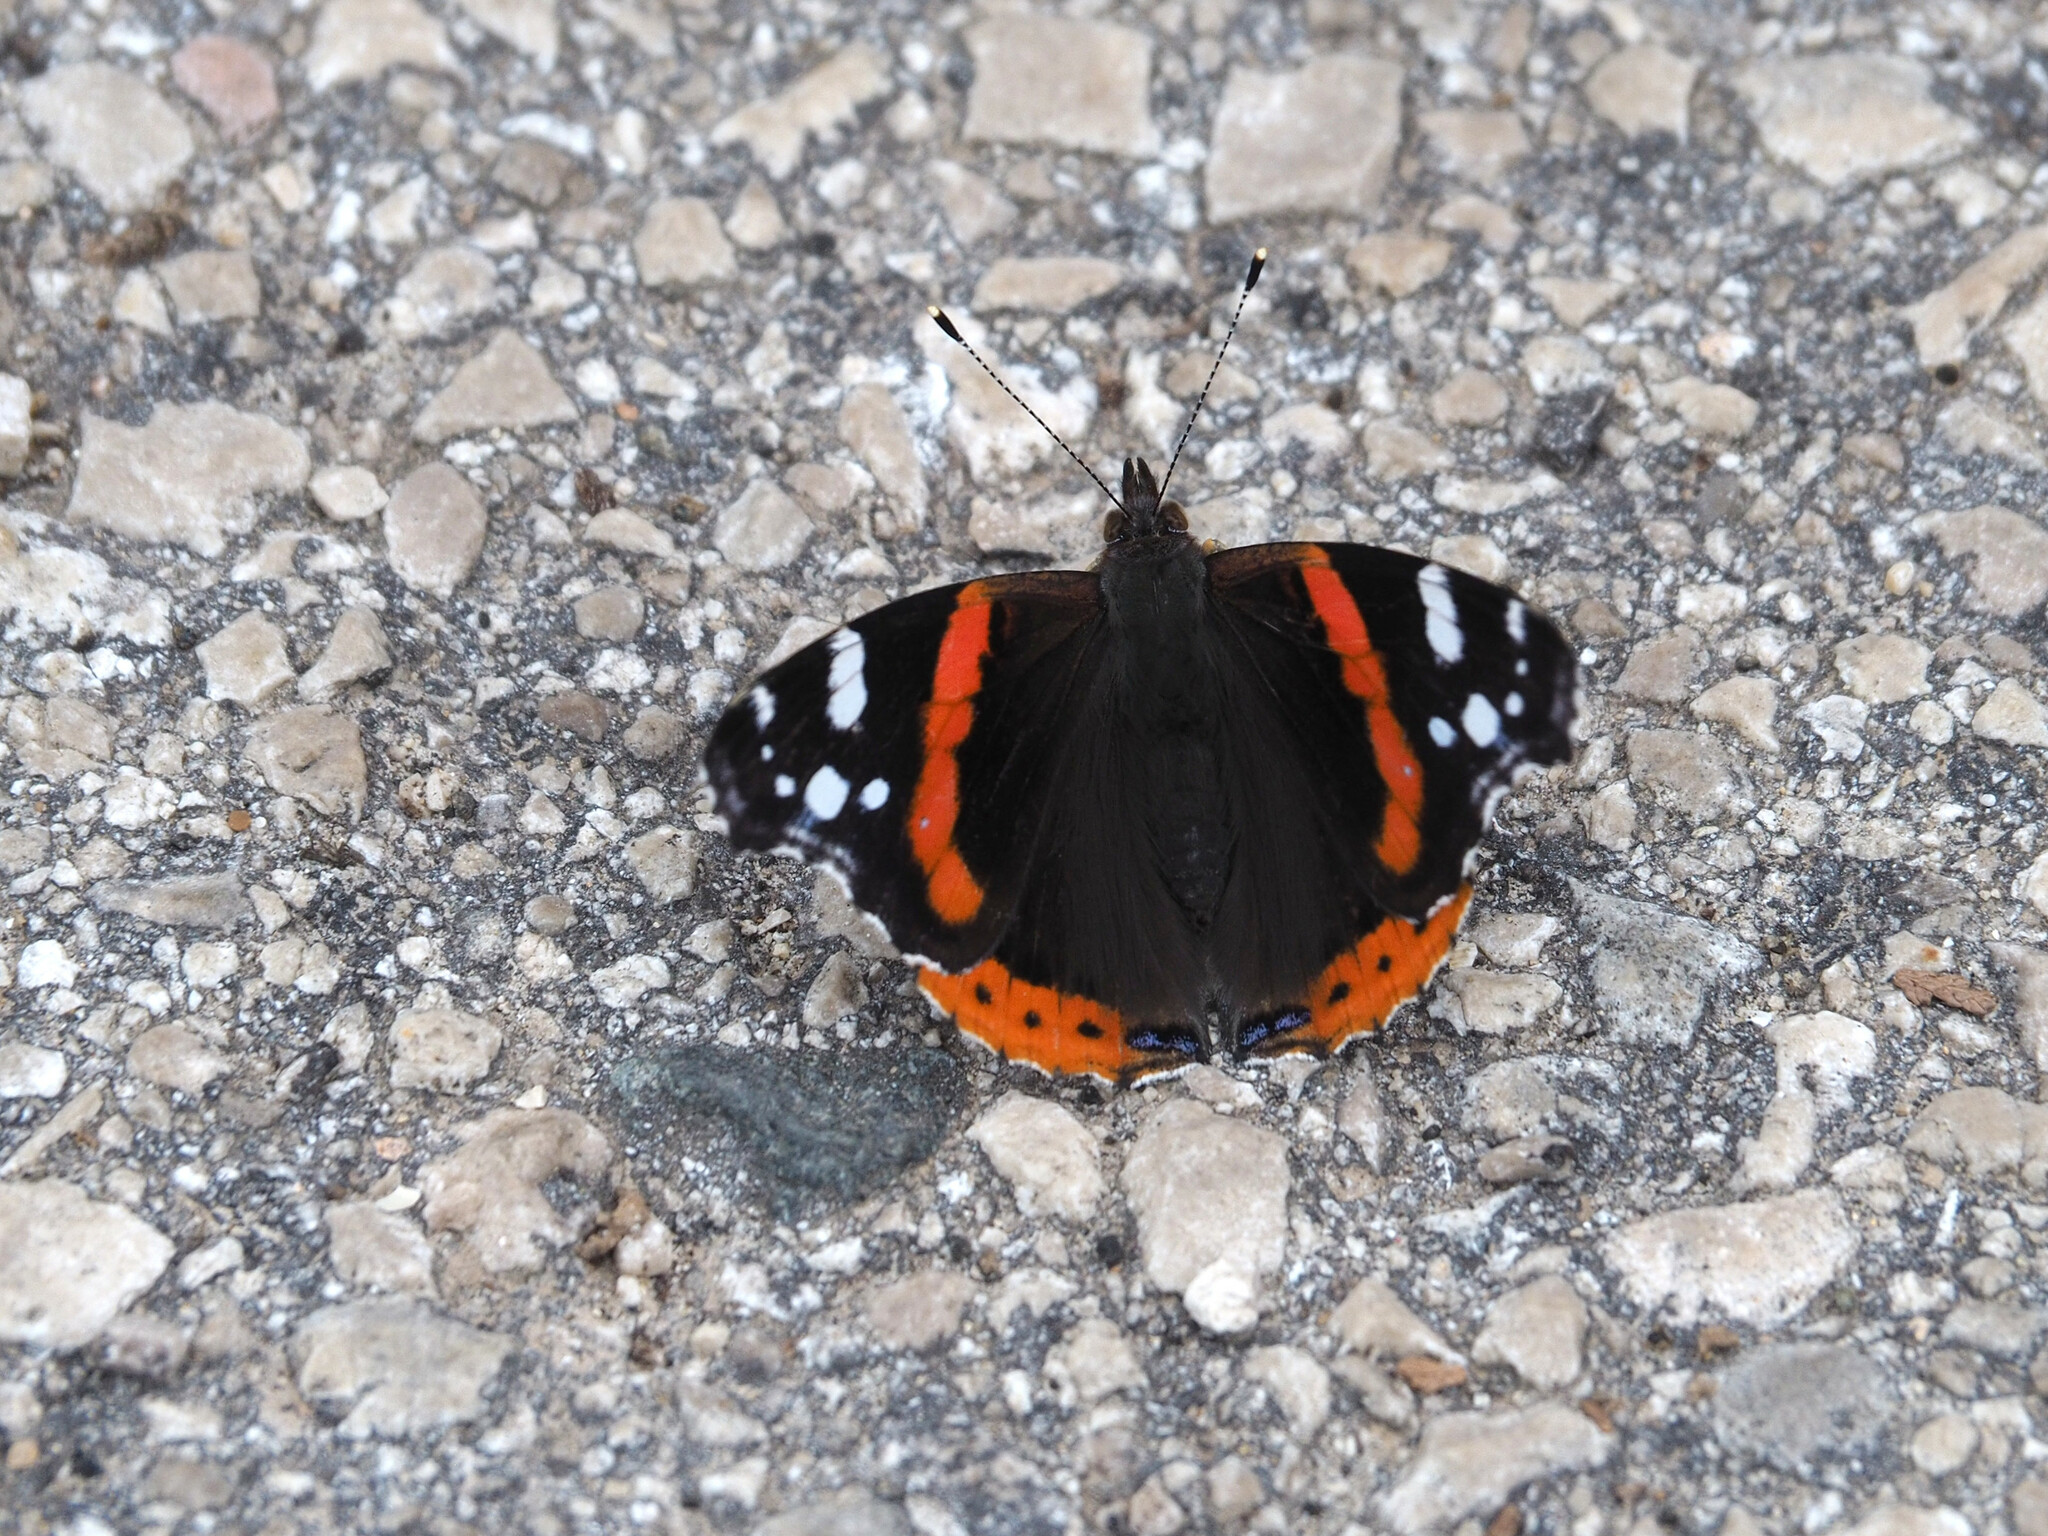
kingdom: Animalia
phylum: Arthropoda
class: Insecta
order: Lepidoptera
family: Nymphalidae
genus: Vanessa
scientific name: Vanessa atalanta
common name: Red admiral
